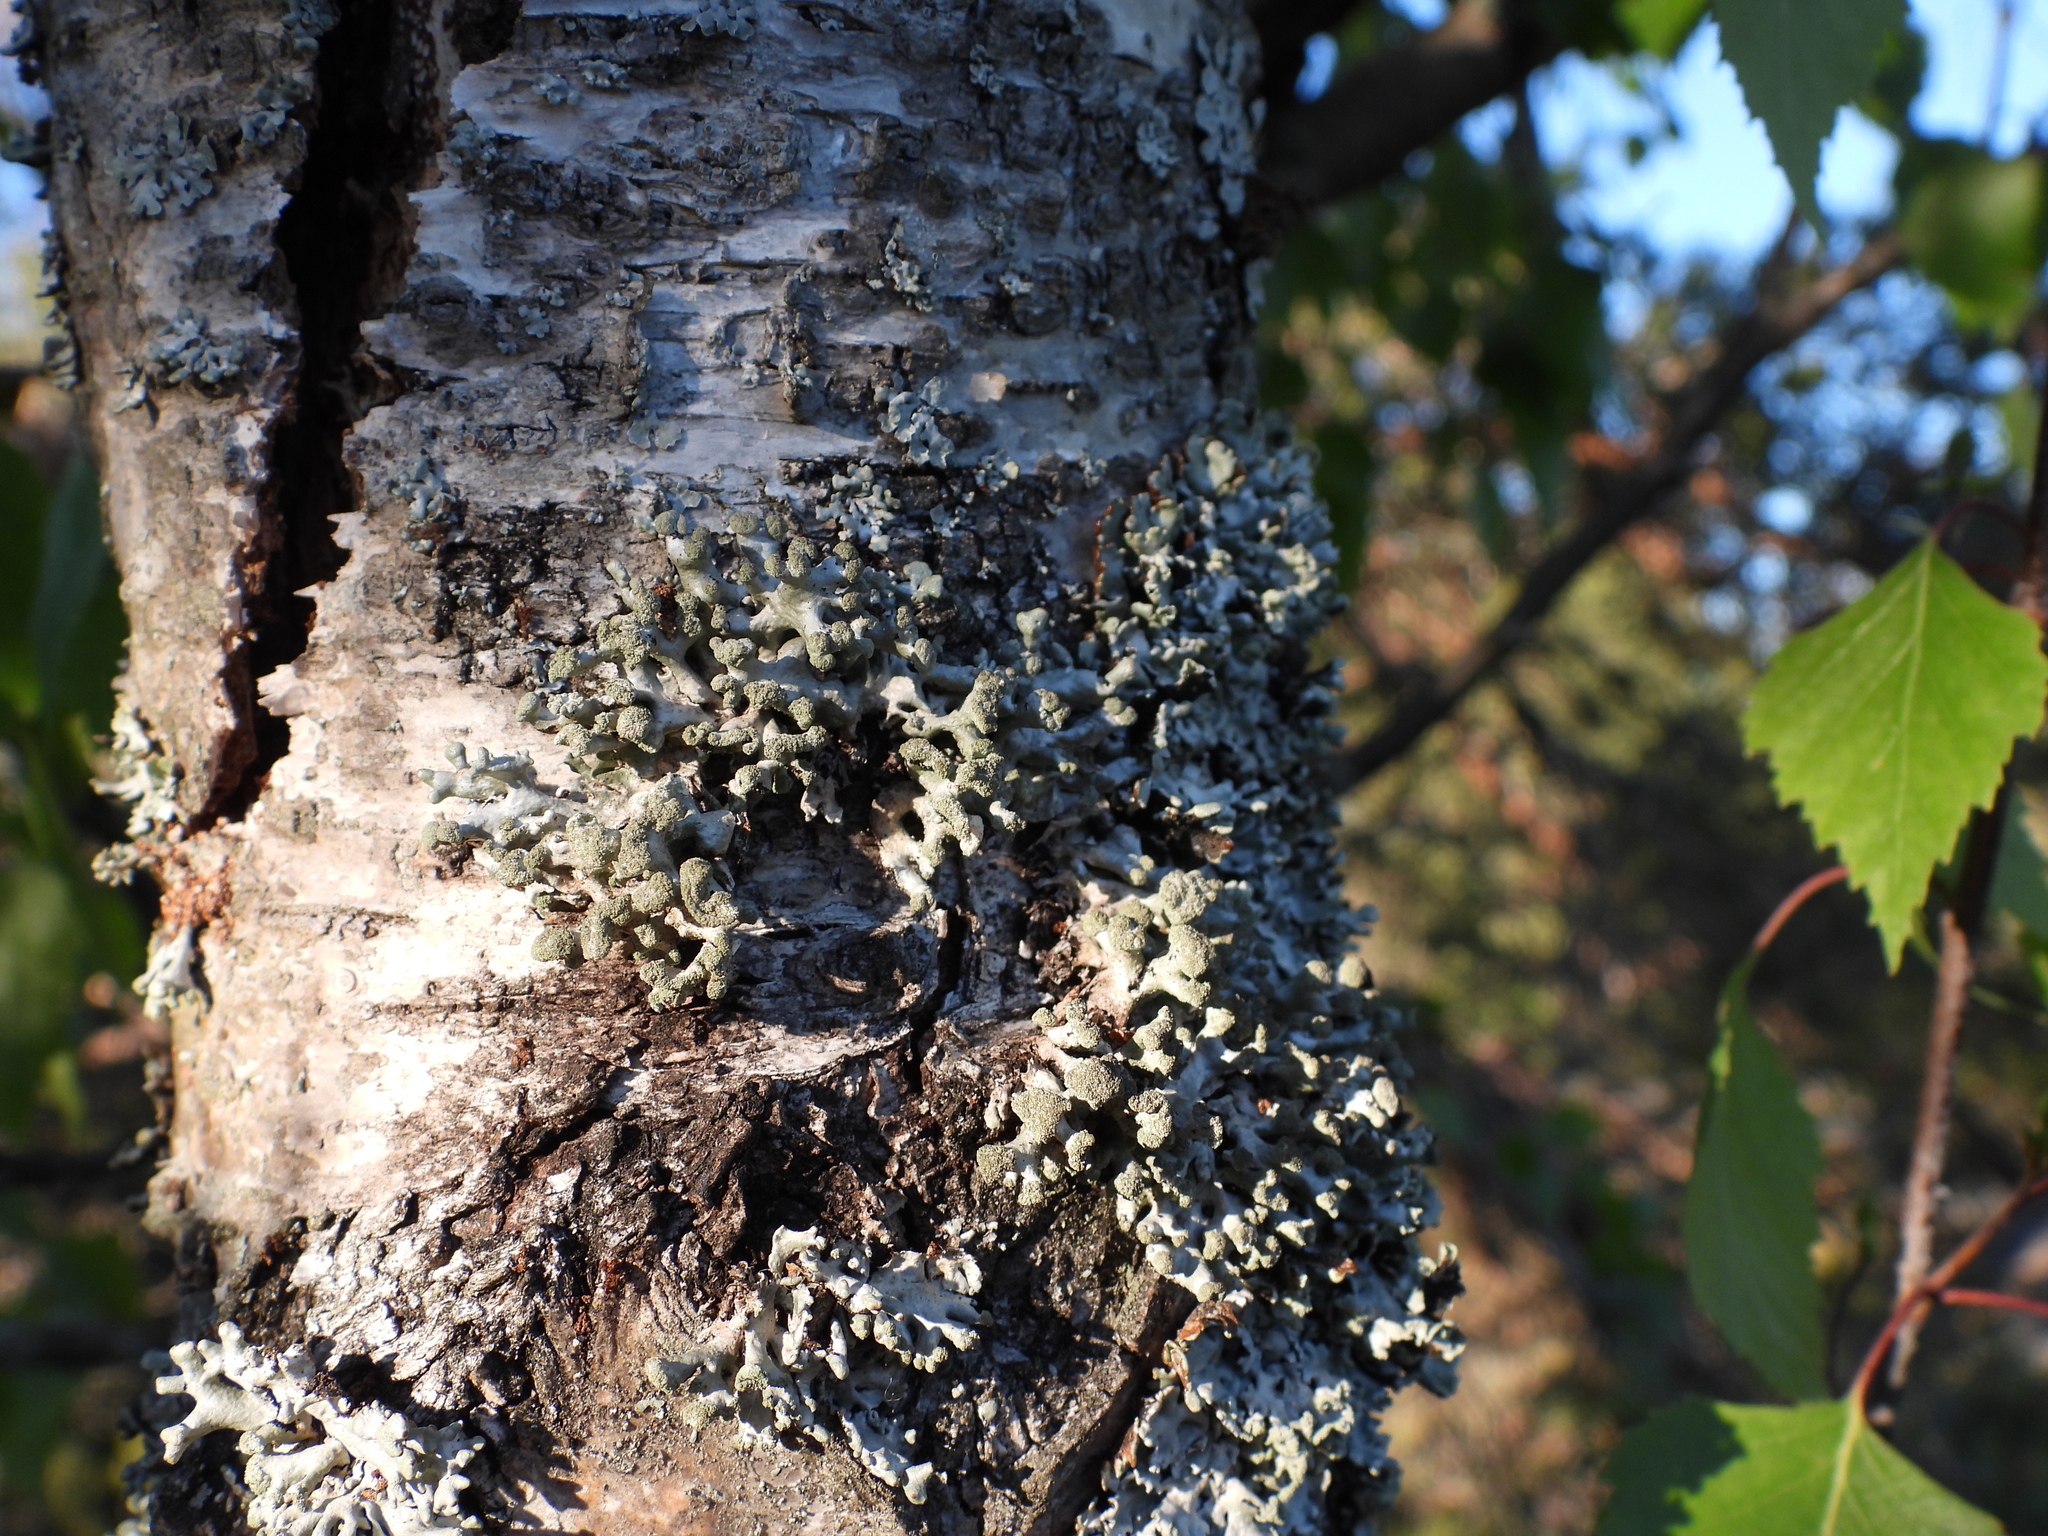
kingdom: Fungi
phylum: Ascomycota
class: Lecanoromycetes
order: Lecanorales
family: Parmeliaceae
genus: Hypogymnia
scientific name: Hypogymnia tubulosa
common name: Powder-headed tube lichen
